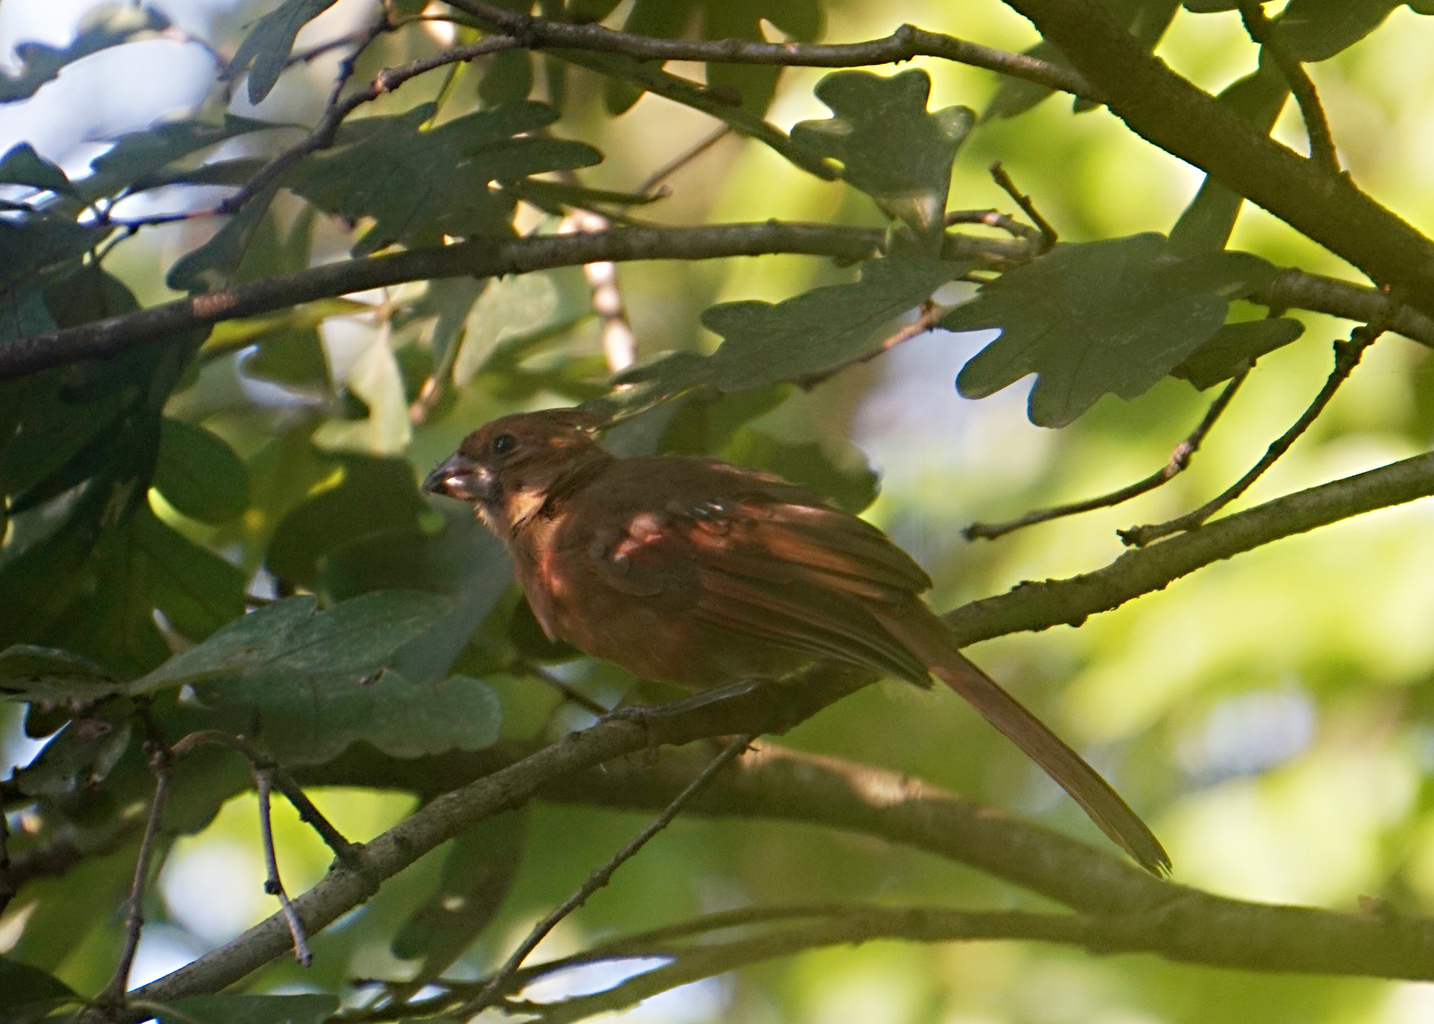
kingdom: Animalia
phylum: Chordata
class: Aves
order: Passeriformes
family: Cardinalidae
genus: Cardinalis
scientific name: Cardinalis cardinalis
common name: Northern cardinal
